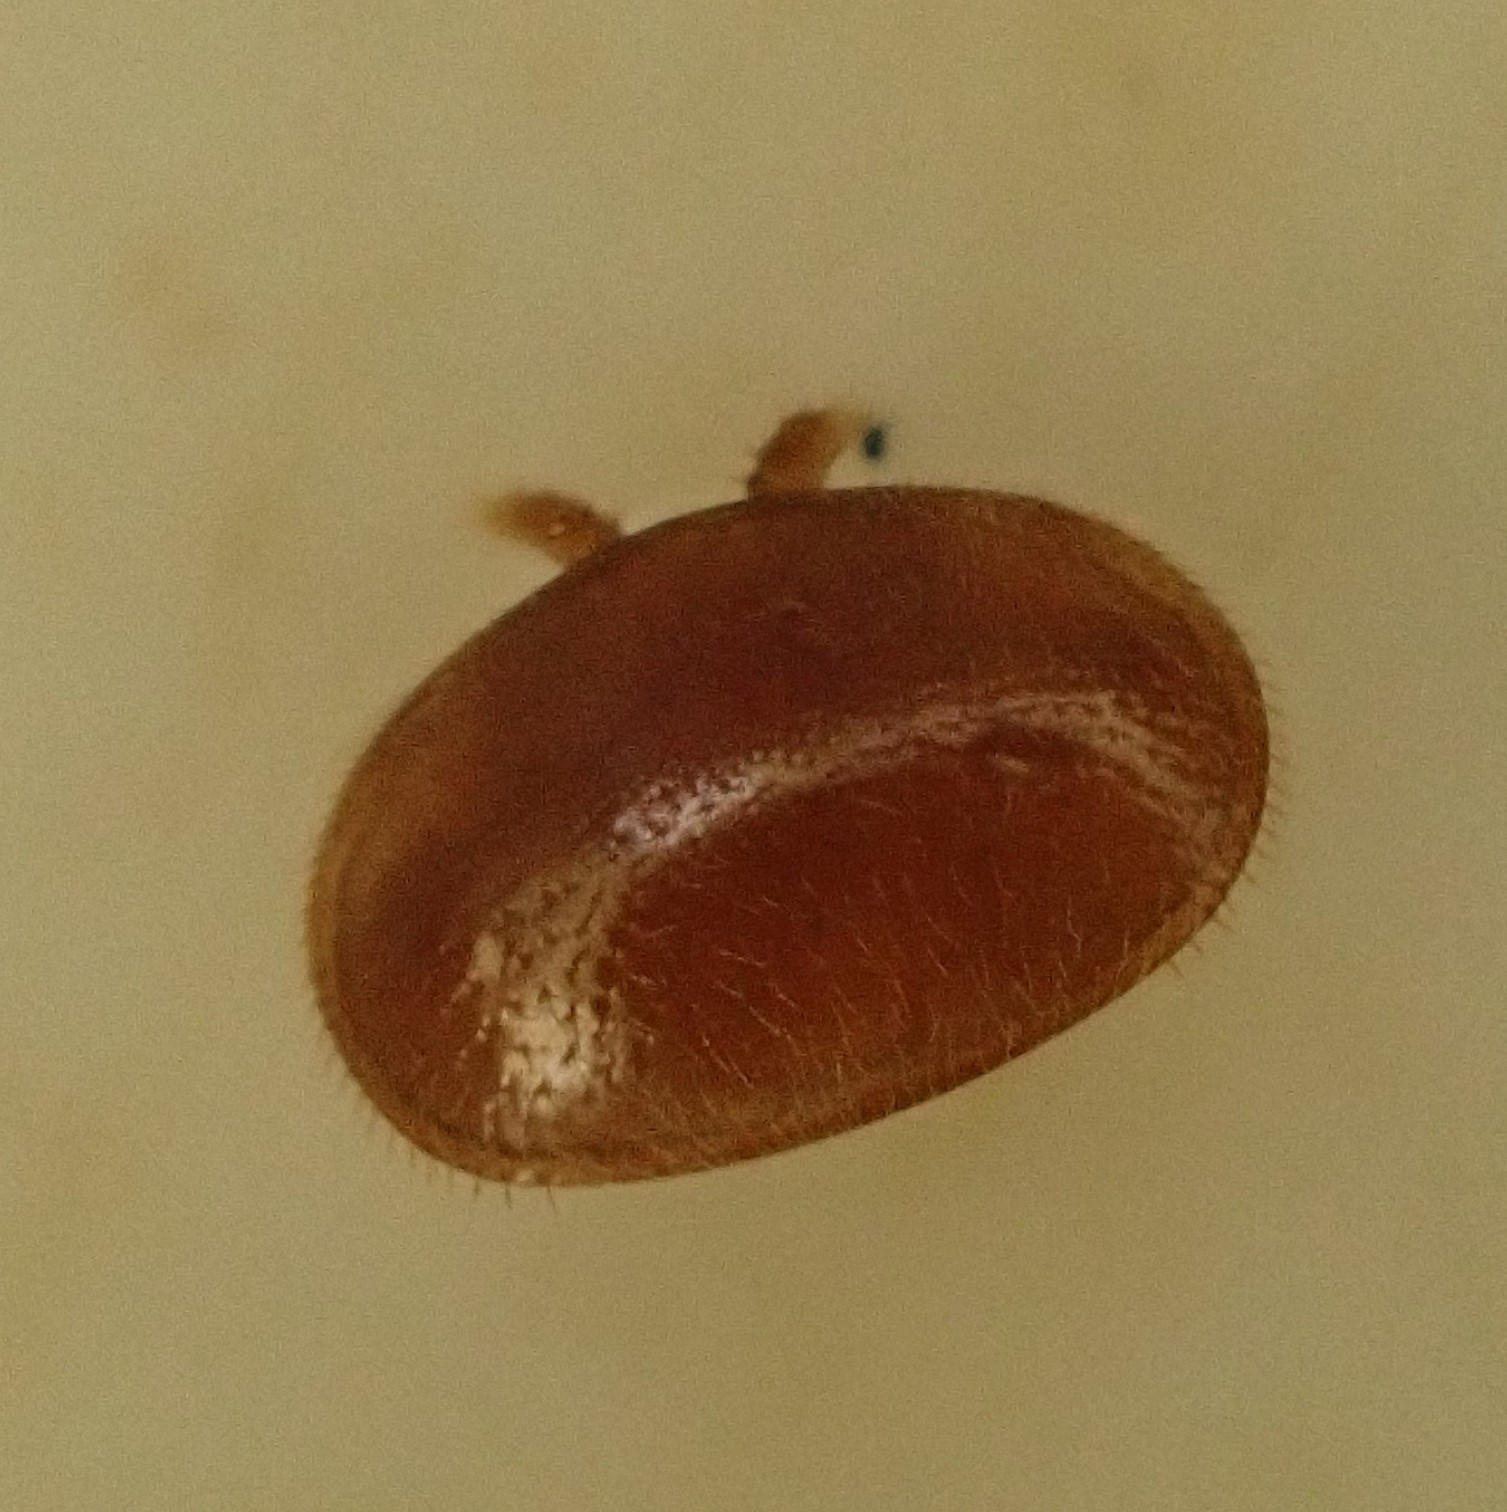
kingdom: Animalia
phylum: Arthropoda
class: Arachnida
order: Mesostigmata
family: Varroidae
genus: Varroa
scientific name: Varroa destructor
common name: Honey bee mite
